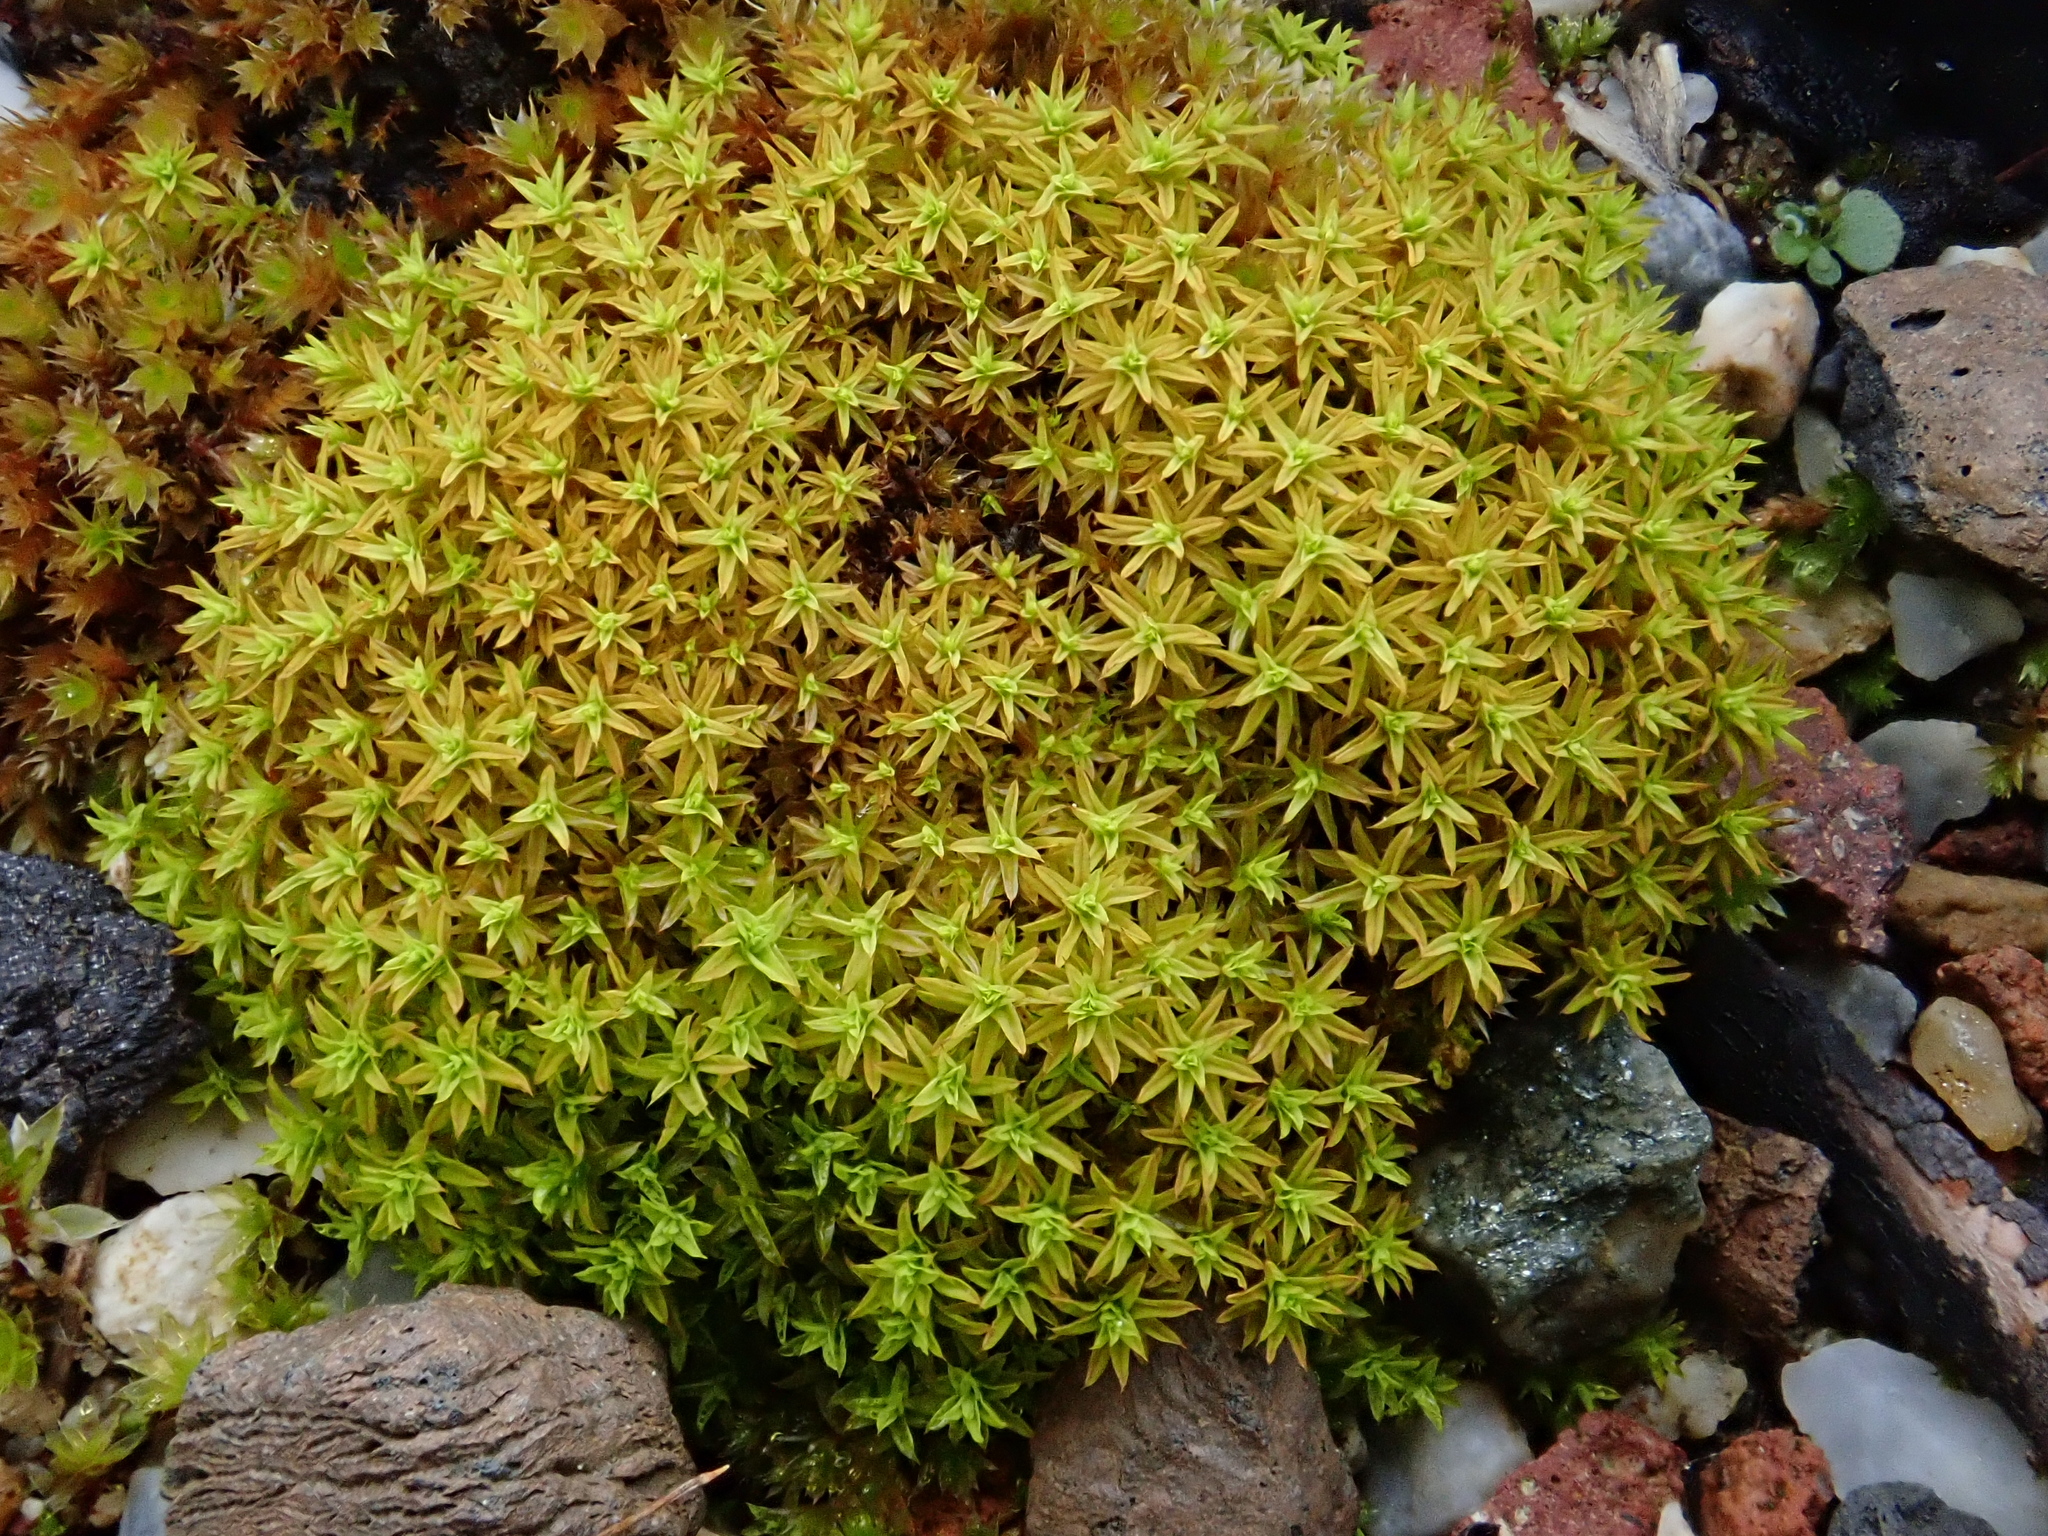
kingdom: Plantae
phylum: Bryophyta
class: Bryopsida
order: Pottiales
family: Pottiaceae
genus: Barbula
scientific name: Barbula unguiculata
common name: Prickly beard moss
